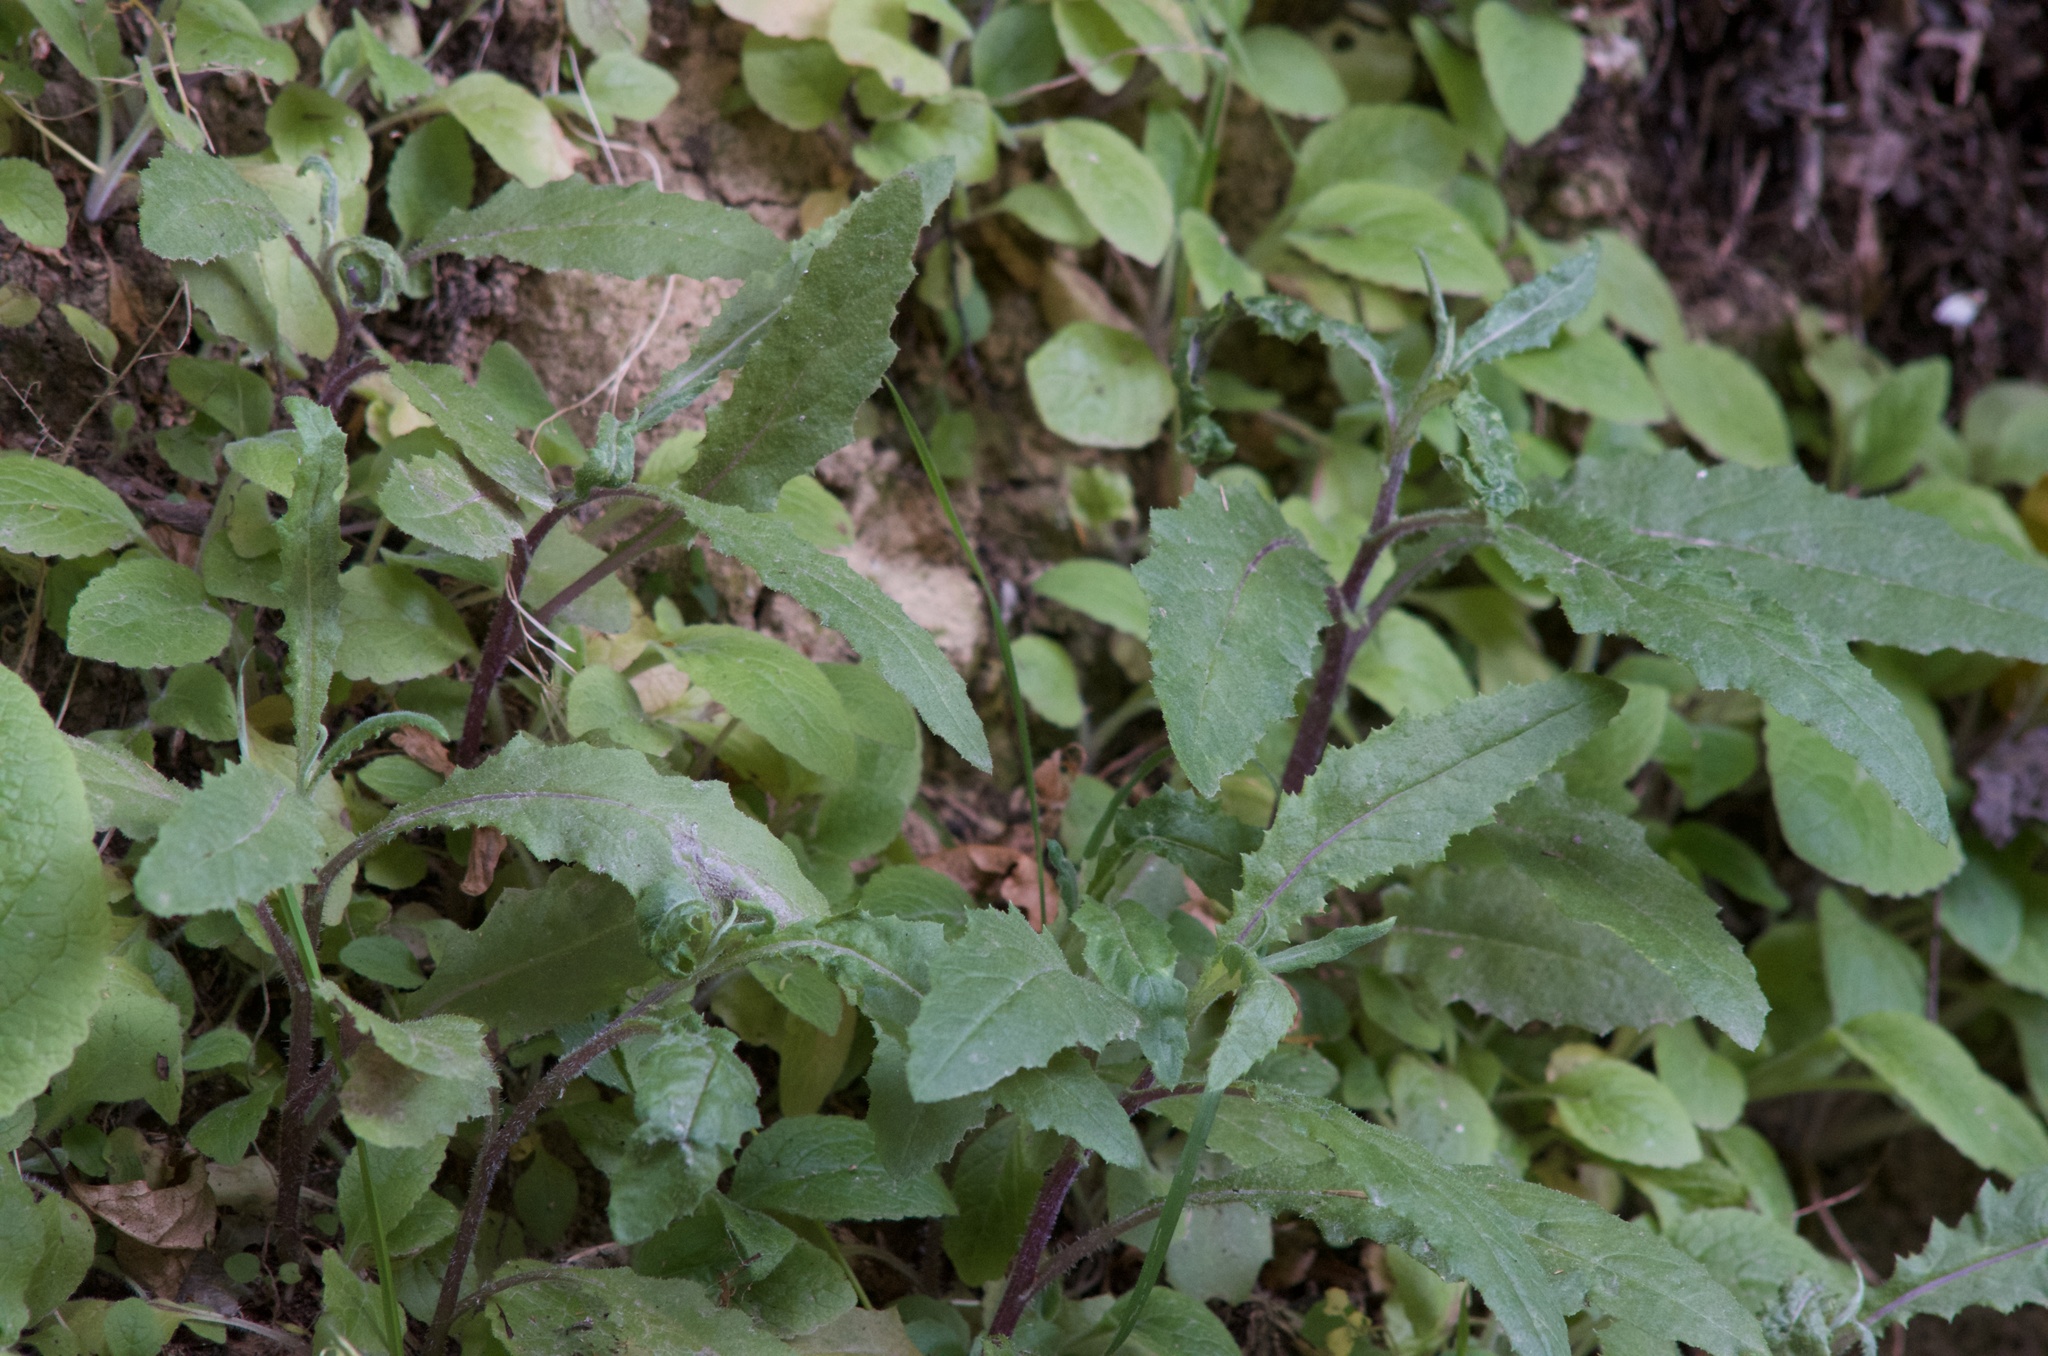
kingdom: Plantae
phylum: Tracheophyta
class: Magnoliopsida
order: Asterales
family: Asteraceae
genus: Senecio
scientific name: Senecio minimus
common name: Toothed fireweed
